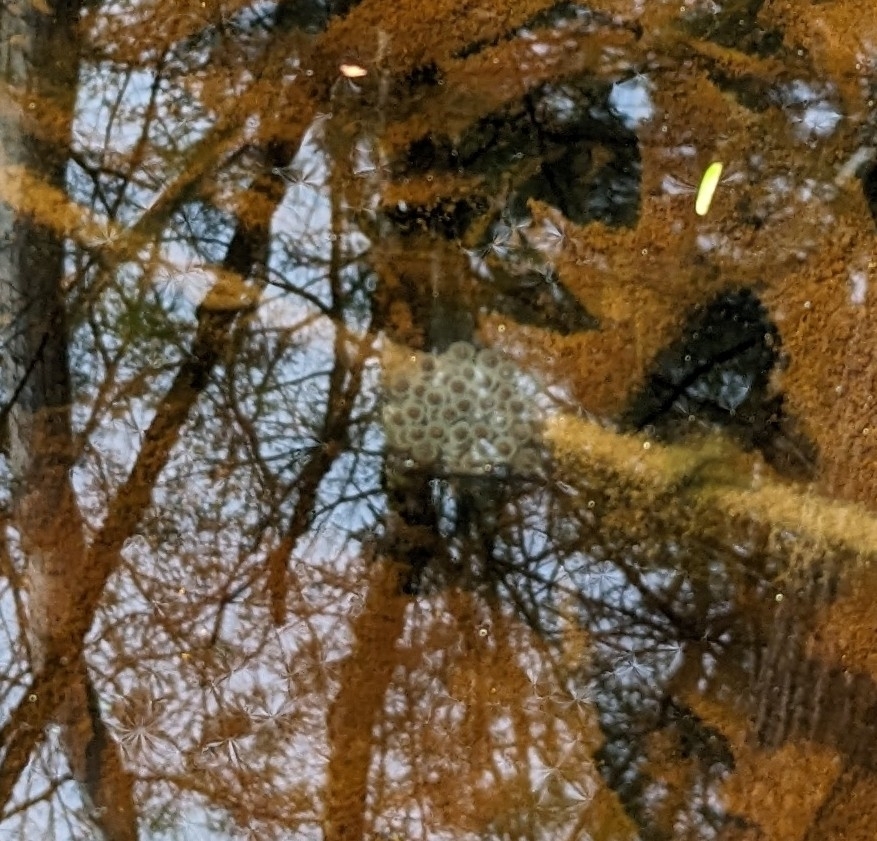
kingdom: Animalia
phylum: Chordata
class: Amphibia
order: Caudata
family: Ambystomatidae
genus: Ambystoma
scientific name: Ambystoma maculatum
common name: Spotted salamander
